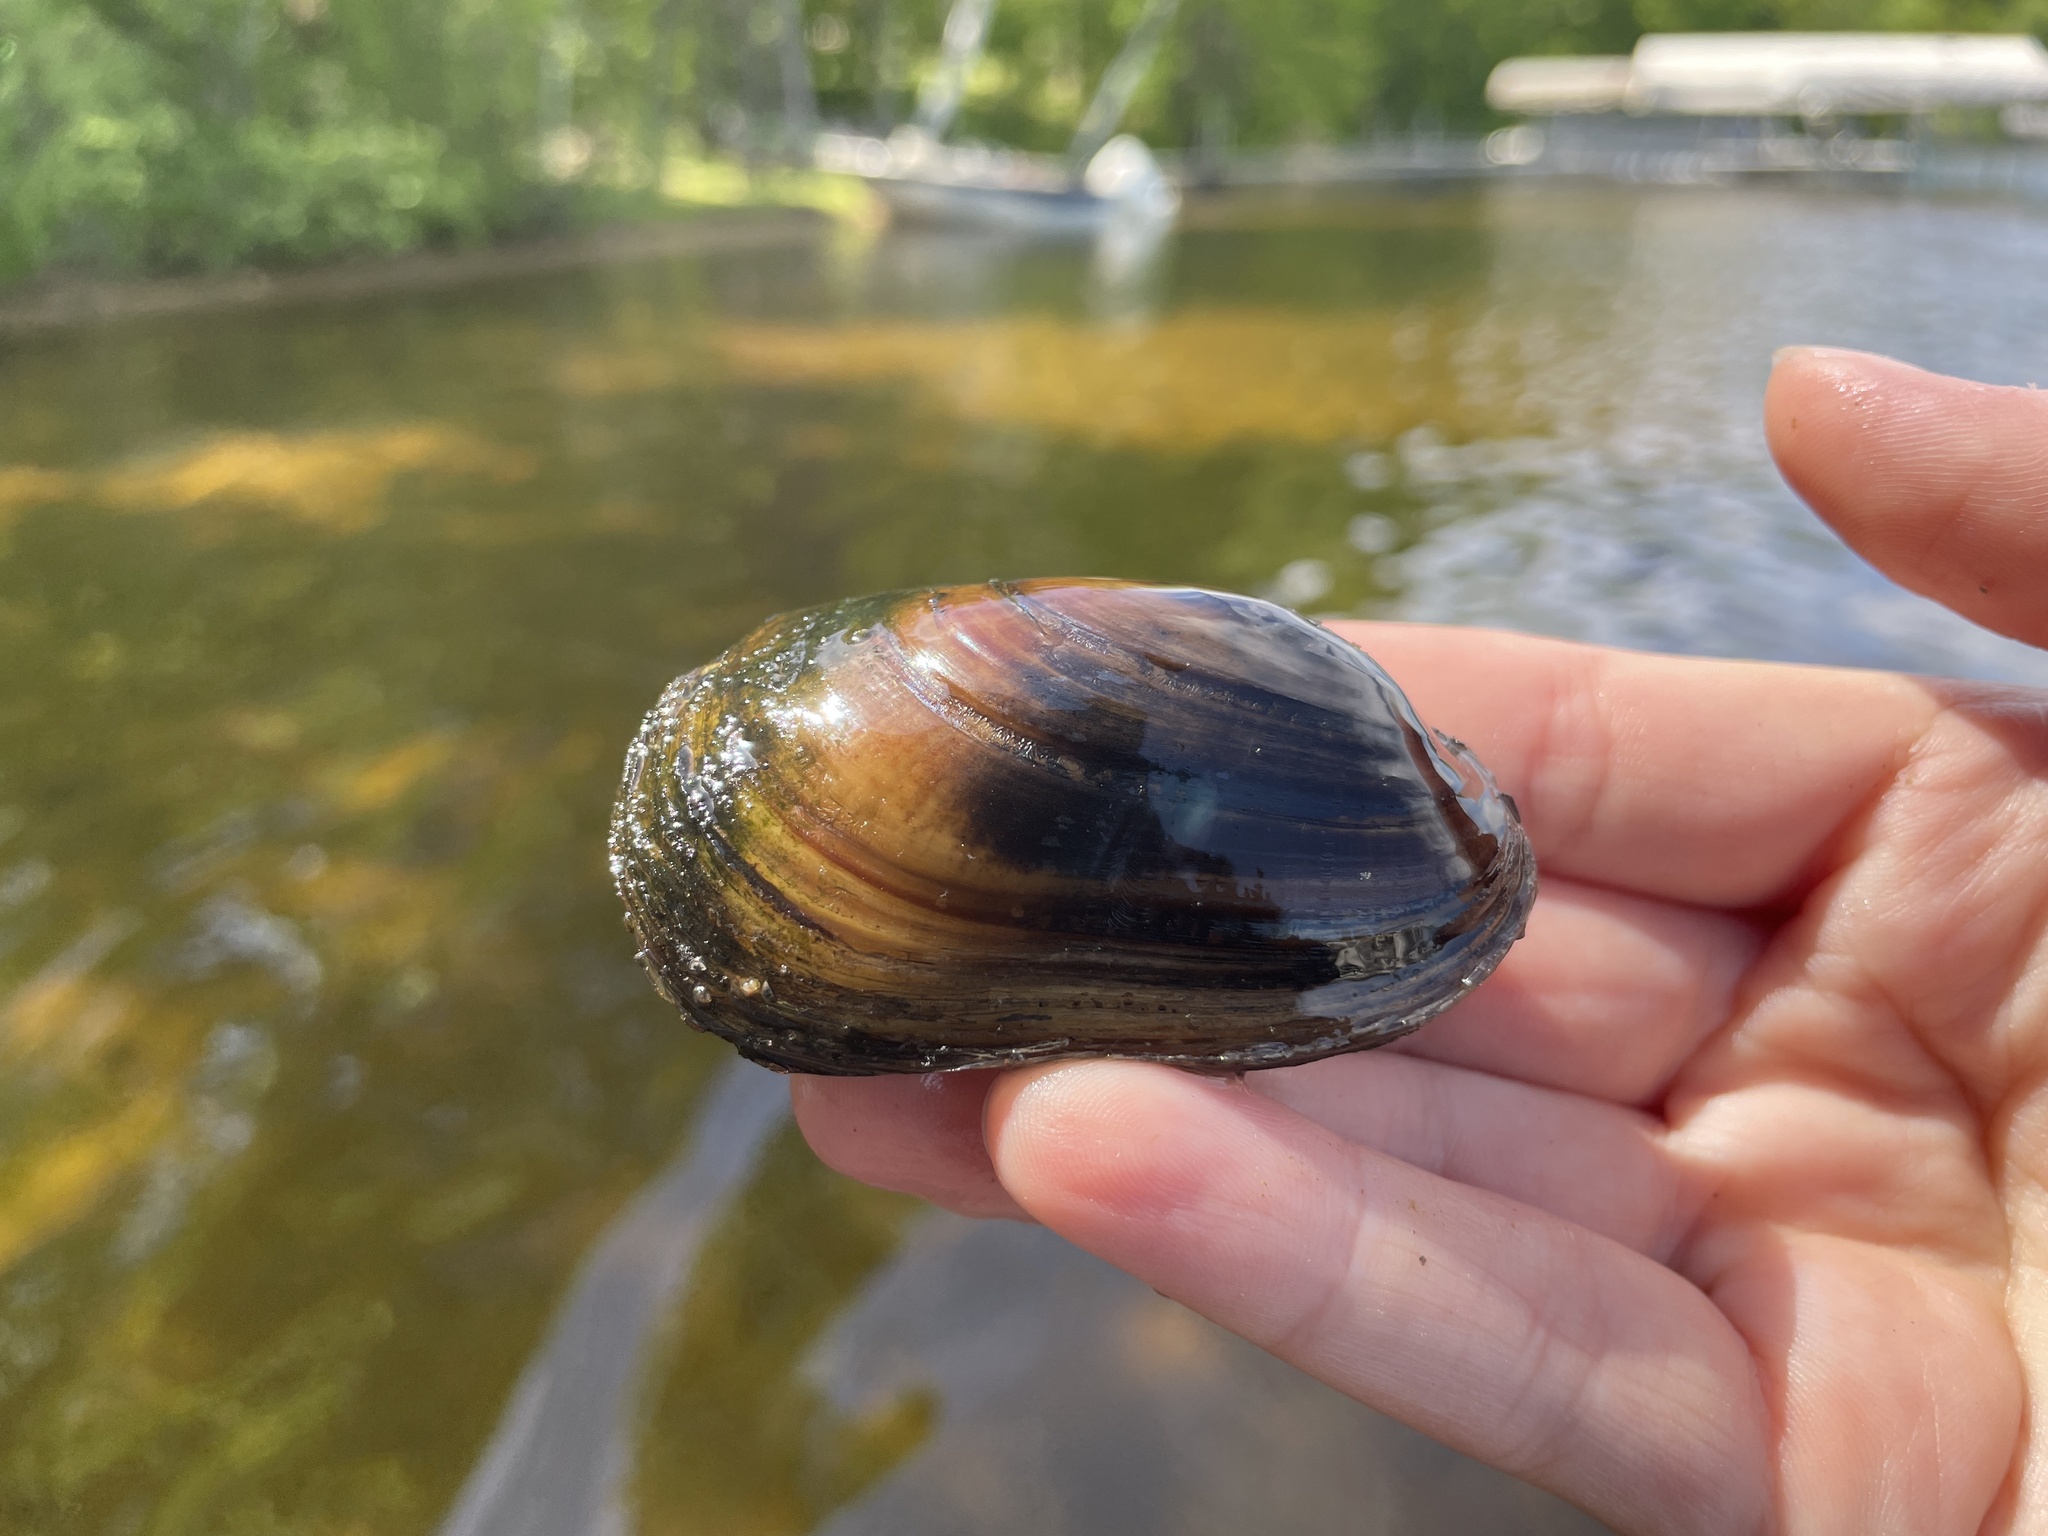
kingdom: Animalia
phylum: Mollusca
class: Bivalvia
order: Unionida
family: Unionidae
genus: Lampsilis
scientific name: Lampsilis siliquoidea
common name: Fatmucket
